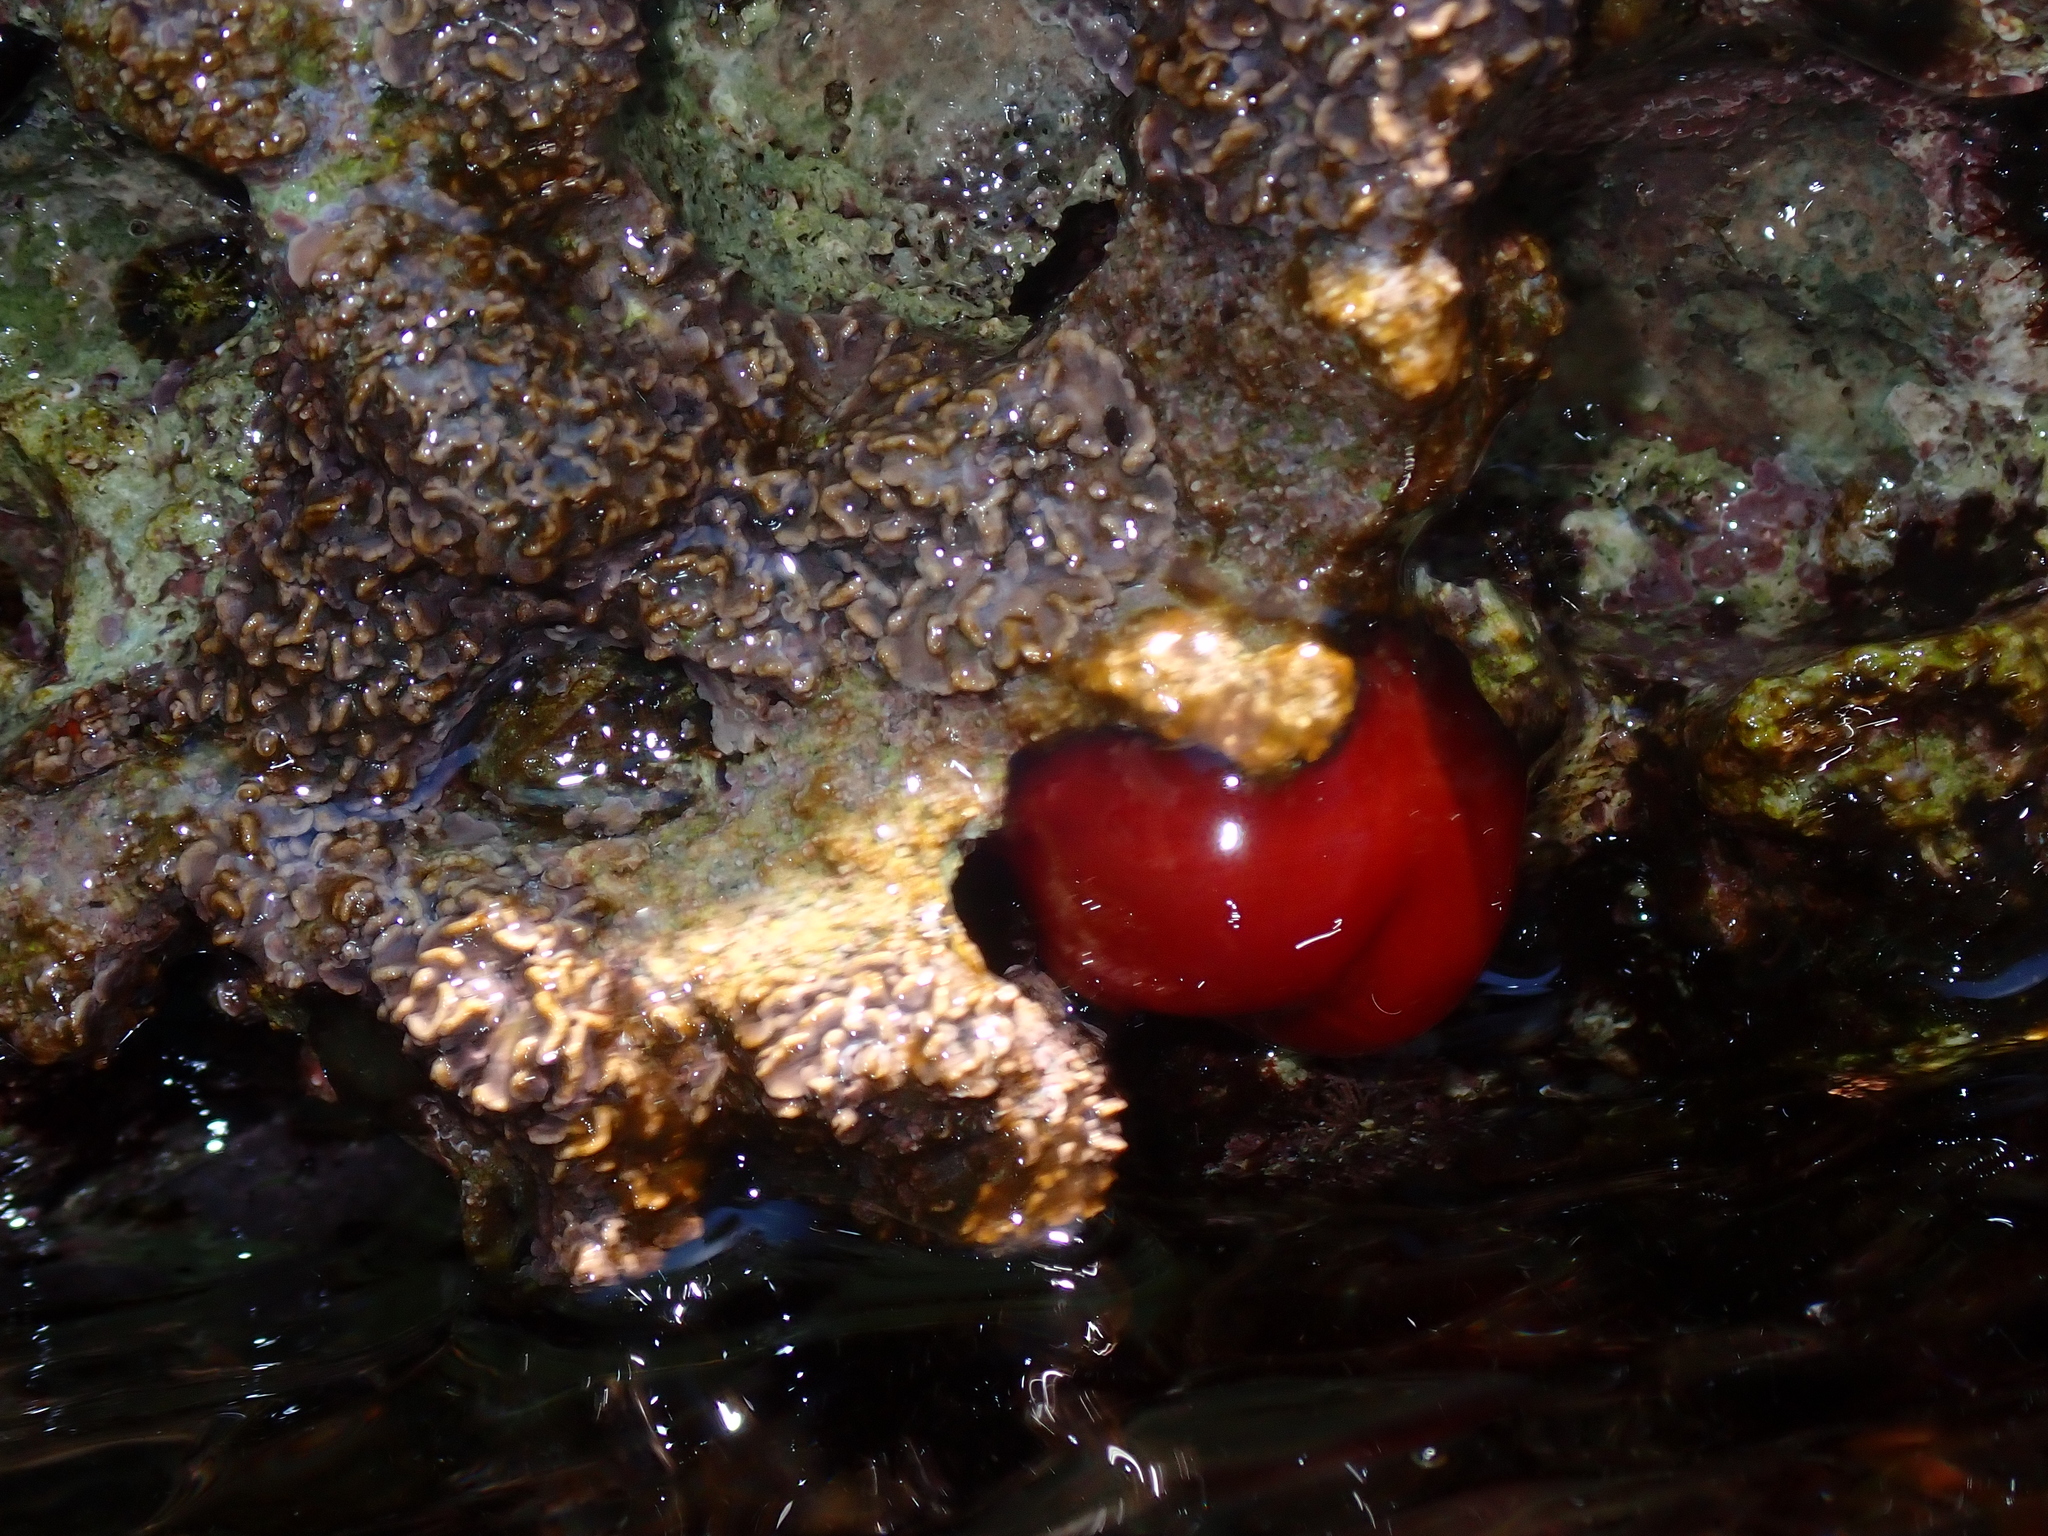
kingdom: Animalia
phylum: Cnidaria
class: Anthozoa
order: Actiniaria
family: Actiniidae
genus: Actinia
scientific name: Actinia mediterranea
